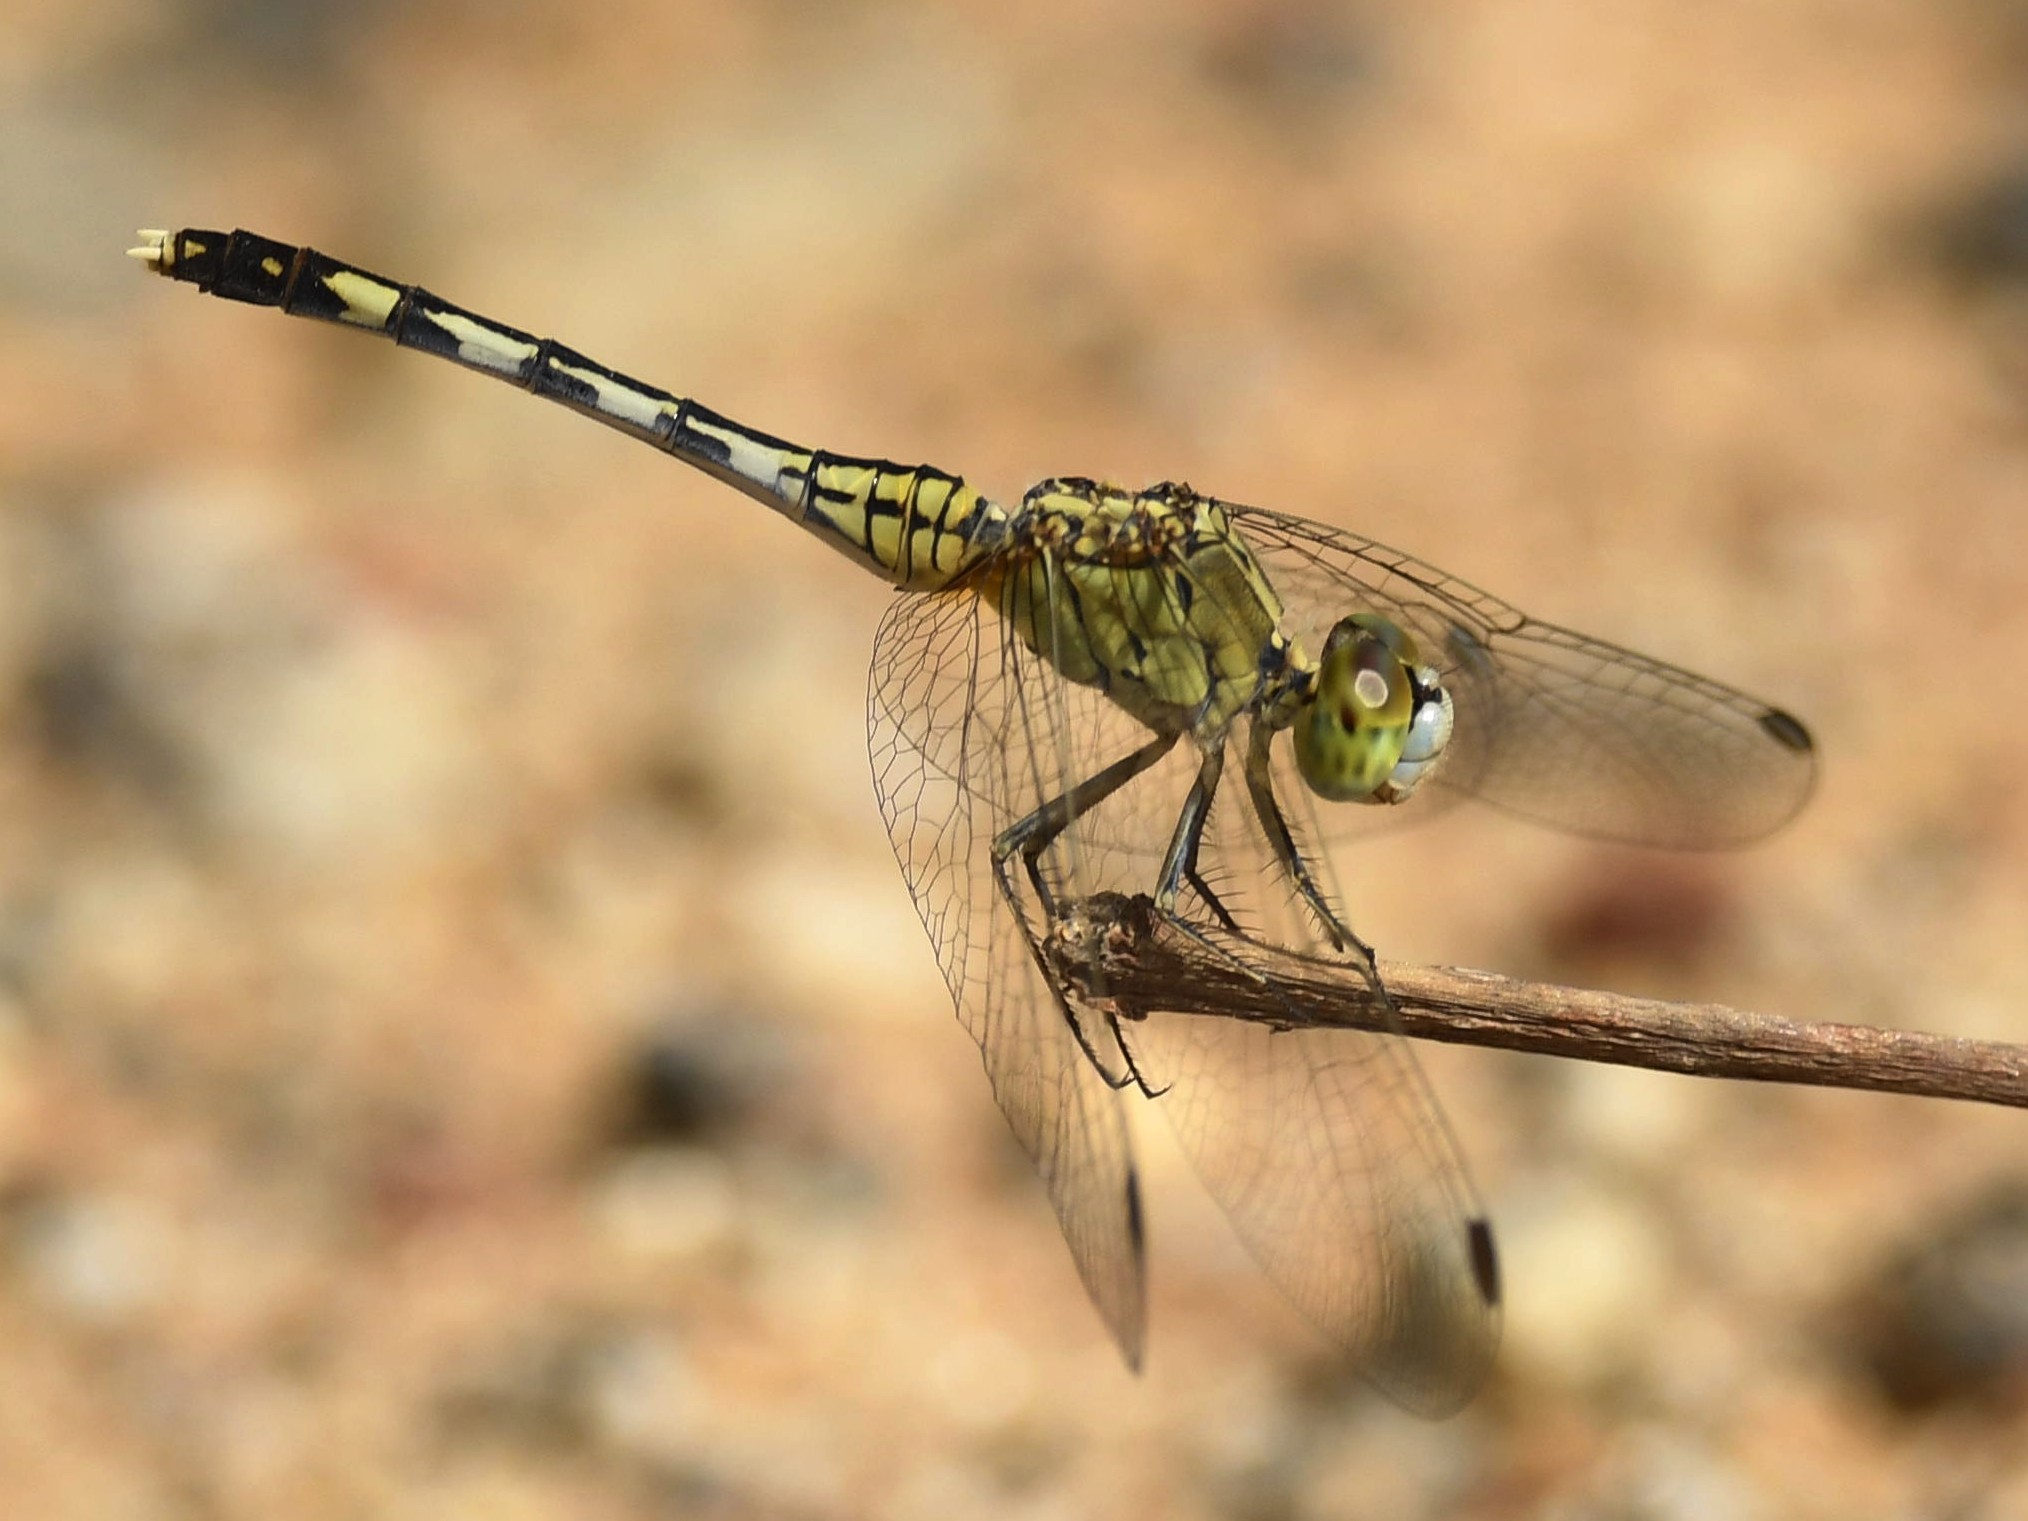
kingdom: Animalia
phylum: Arthropoda
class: Insecta
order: Odonata
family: Libellulidae
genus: Diplacodes
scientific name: Diplacodes trivialis
